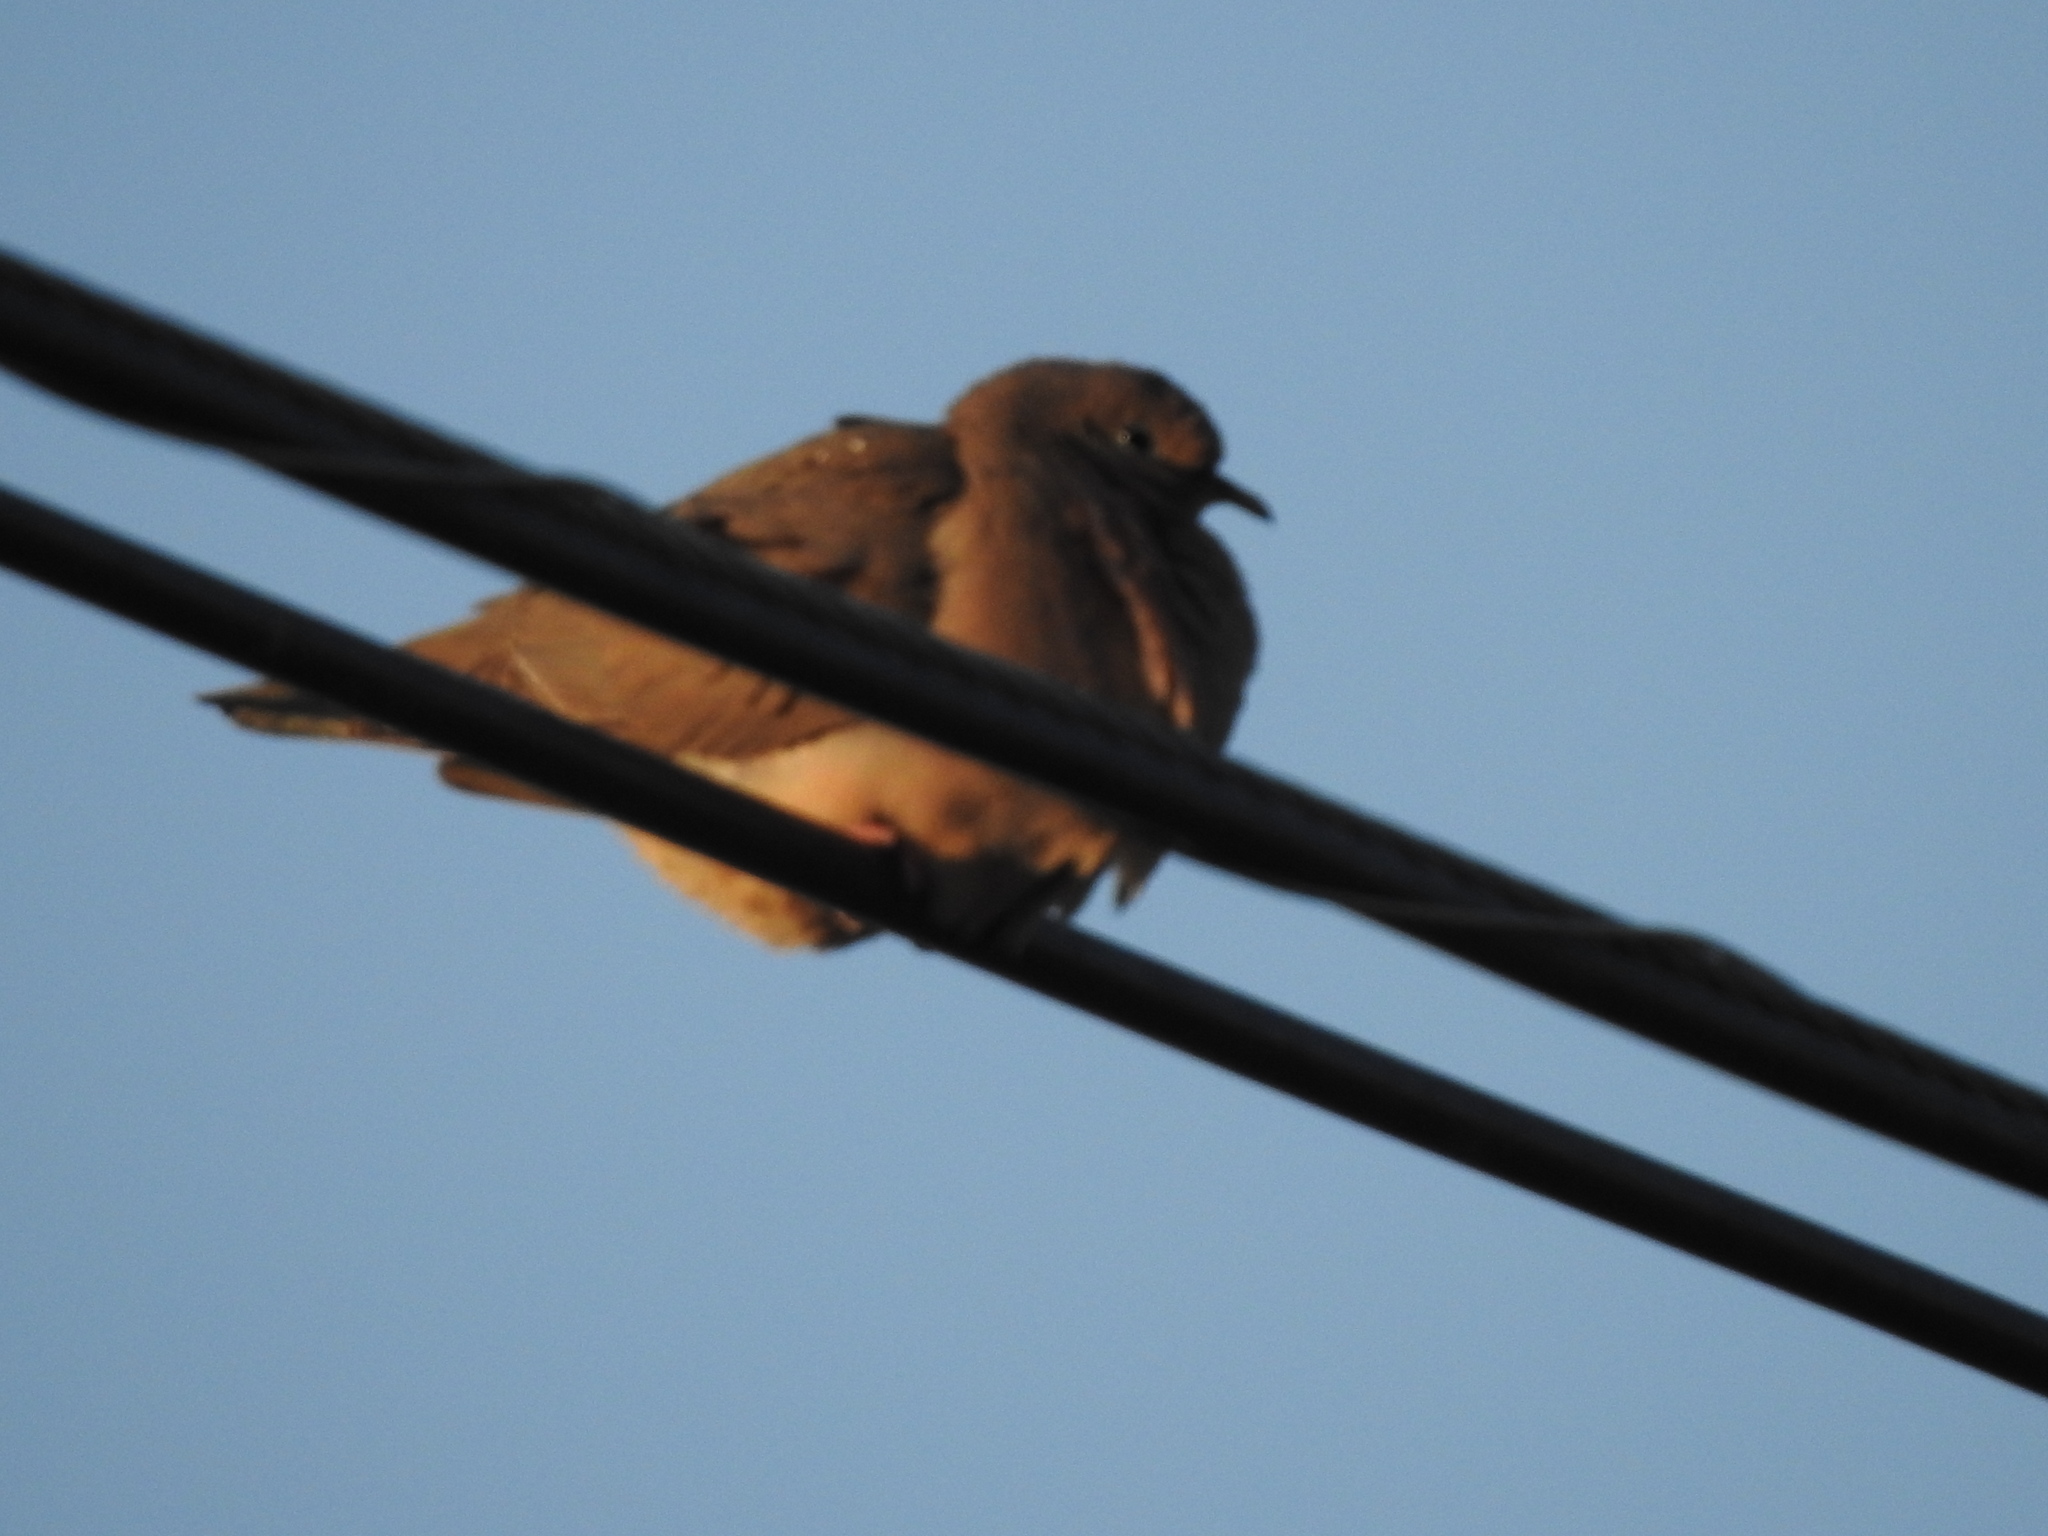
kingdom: Animalia
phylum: Chordata
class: Aves
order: Columbiformes
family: Columbidae
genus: Zenaida
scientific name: Zenaida auriculata
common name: Eared dove
